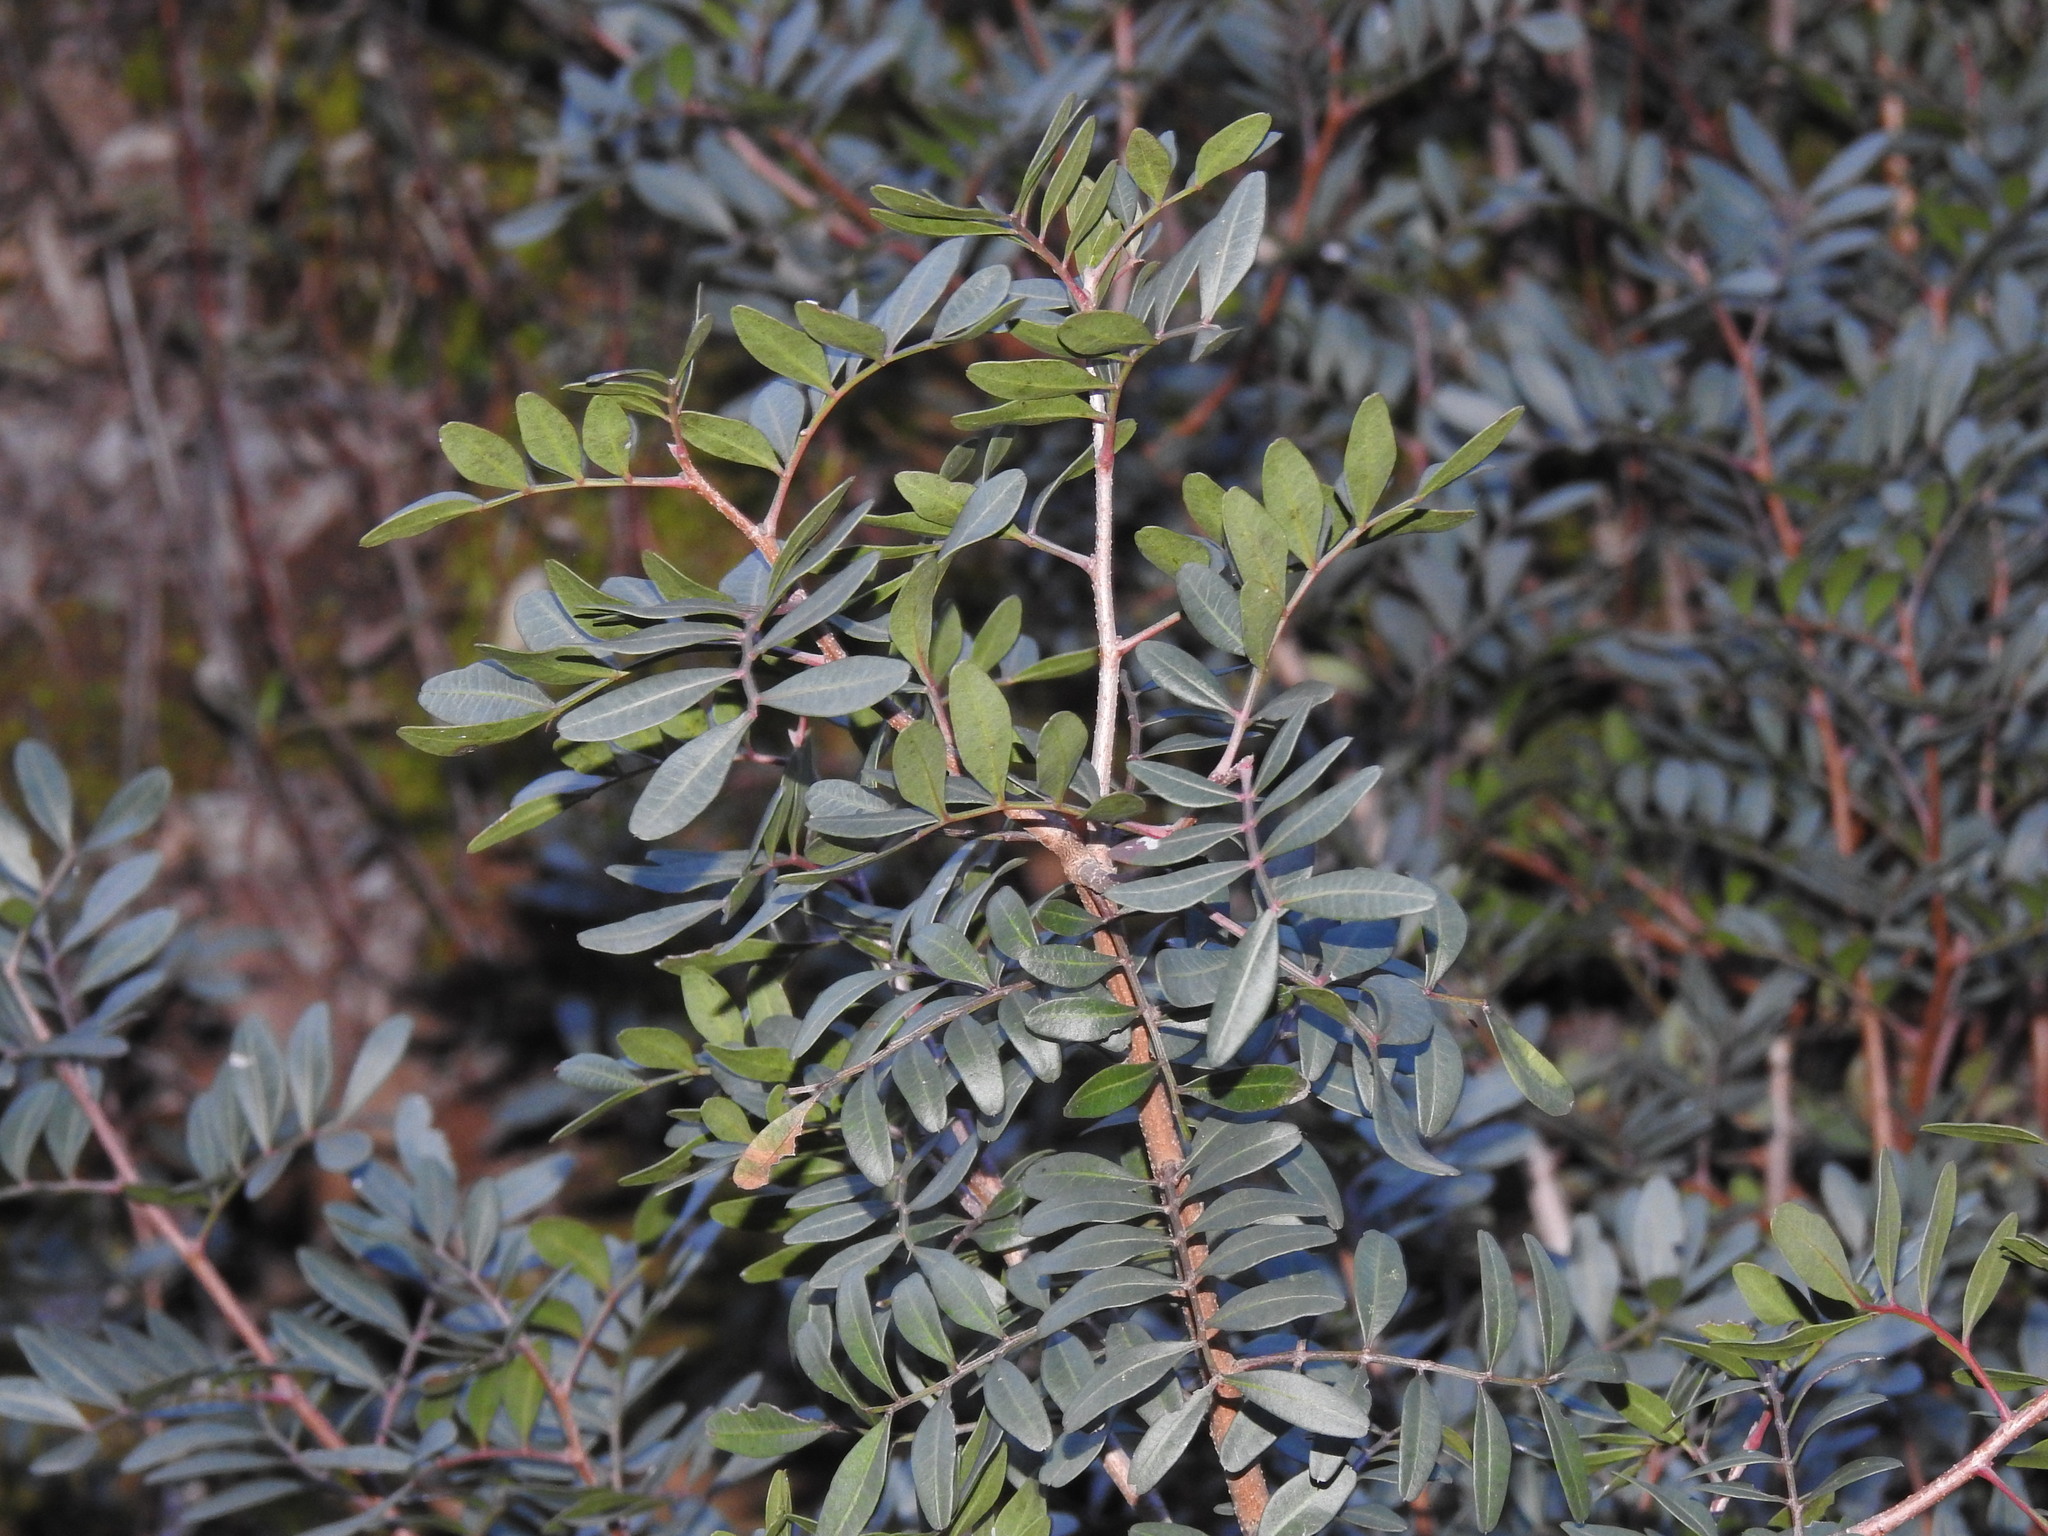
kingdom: Plantae
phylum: Tracheophyta
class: Magnoliopsida
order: Sapindales
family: Anacardiaceae
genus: Pistacia
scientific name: Pistacia lentiscus
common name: Lentisk
